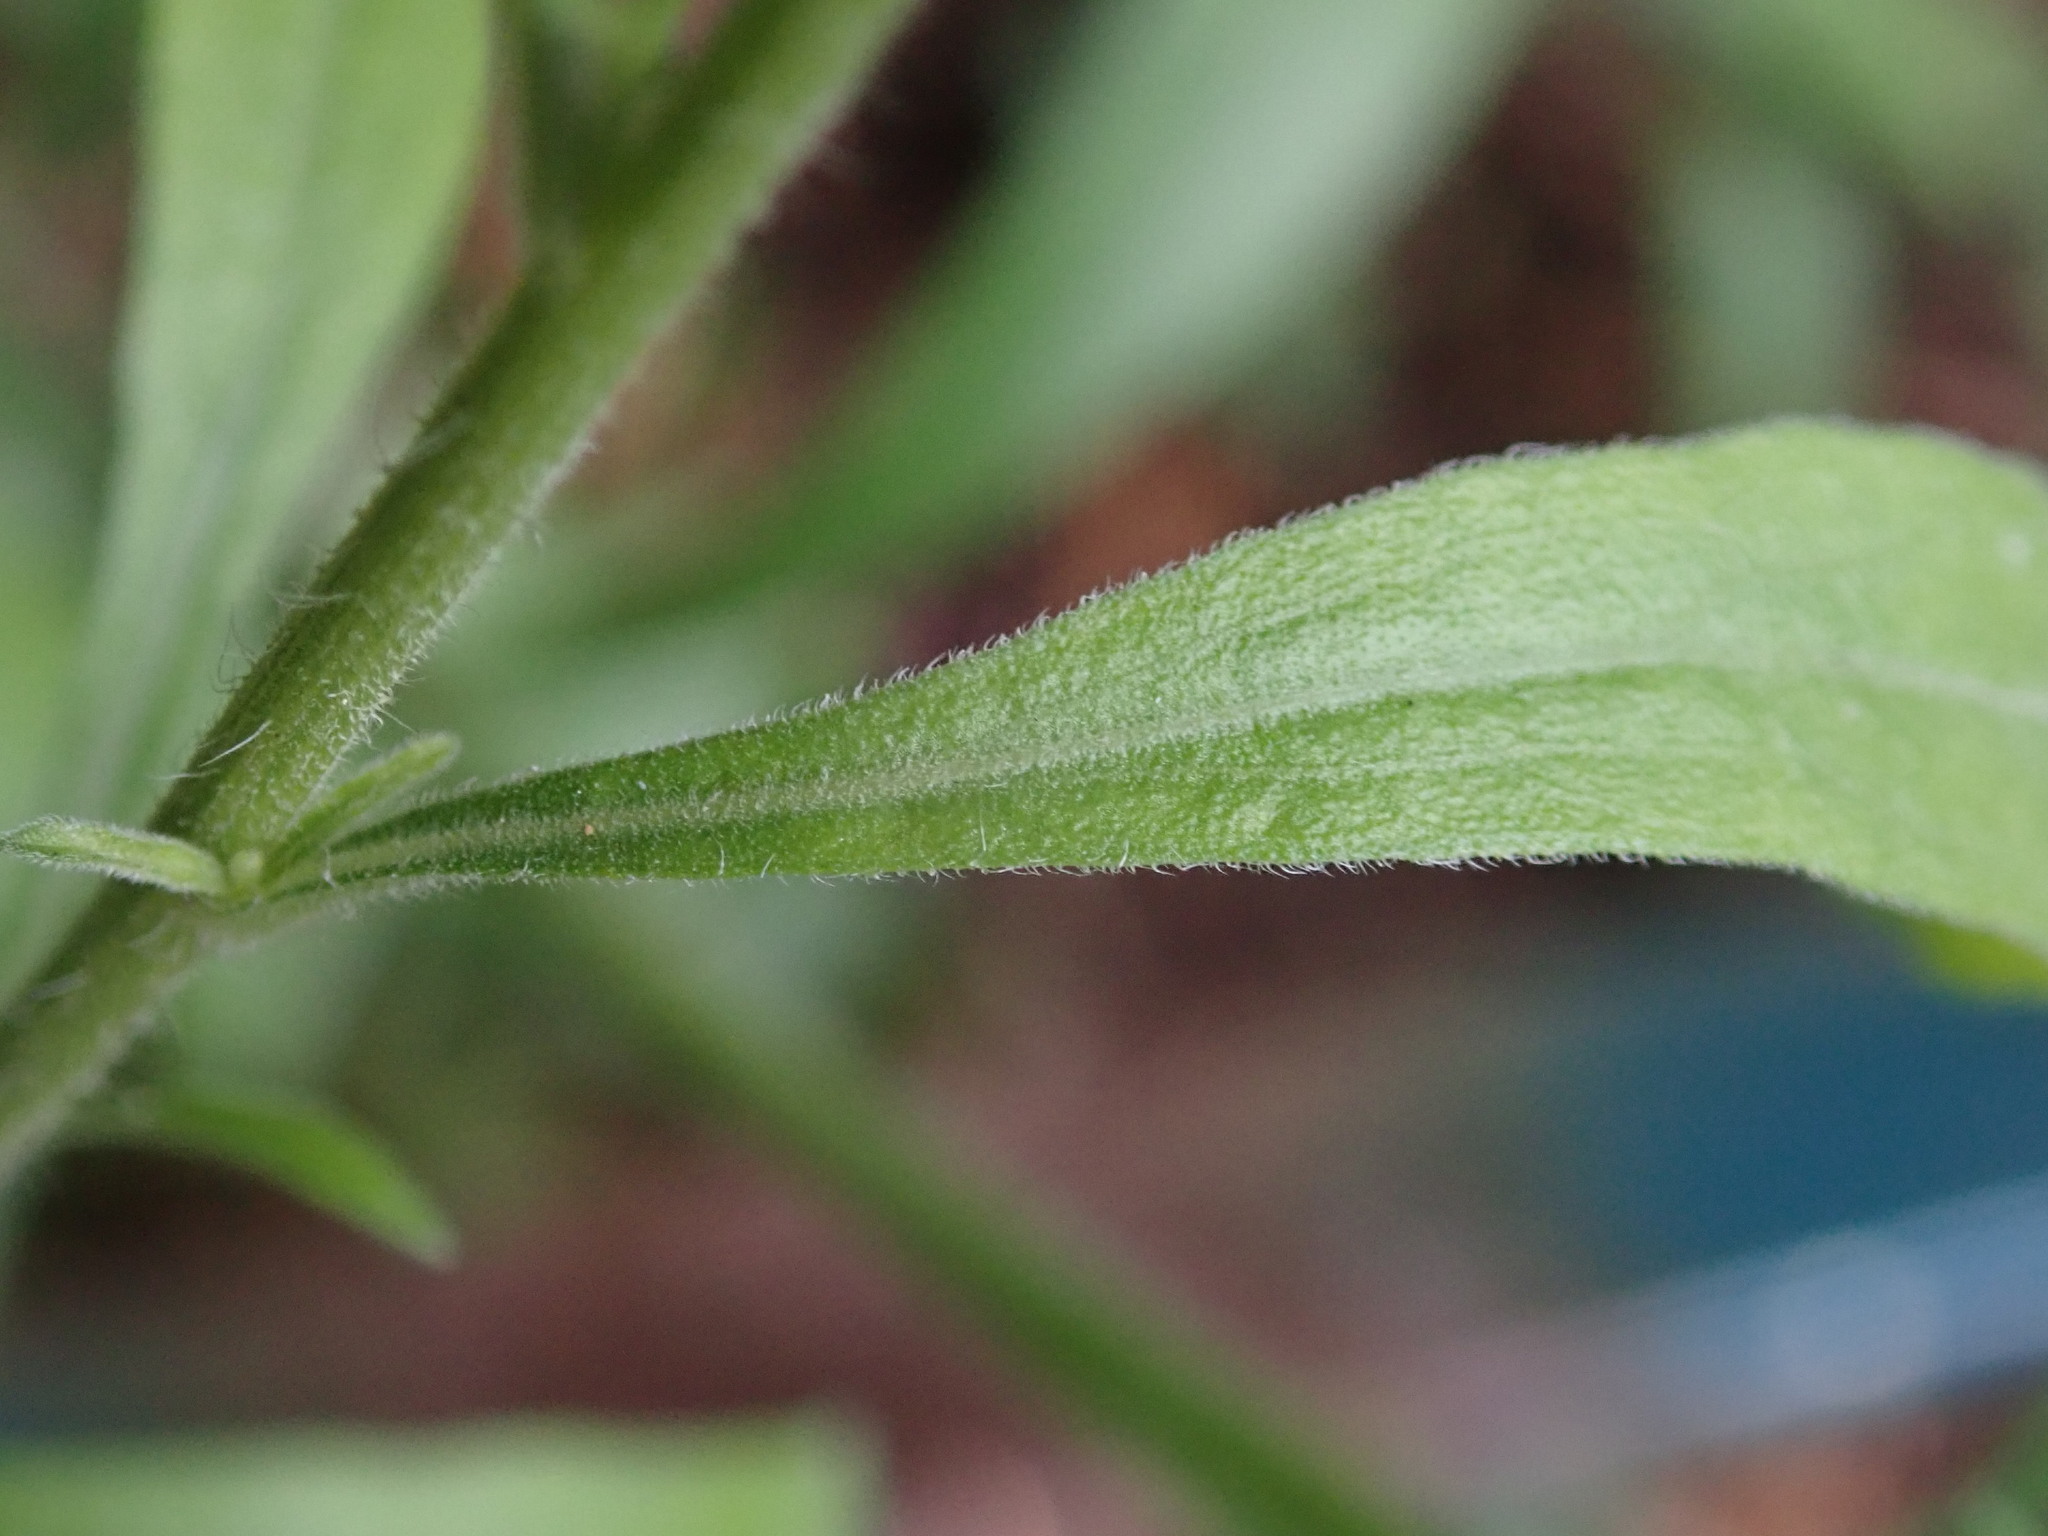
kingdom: Plantae
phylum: Tracheophyta
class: Magnoliopsida
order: Asterales
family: Asteraceae
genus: Erigeron
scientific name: Erigeron sumatrensis
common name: Daisy
